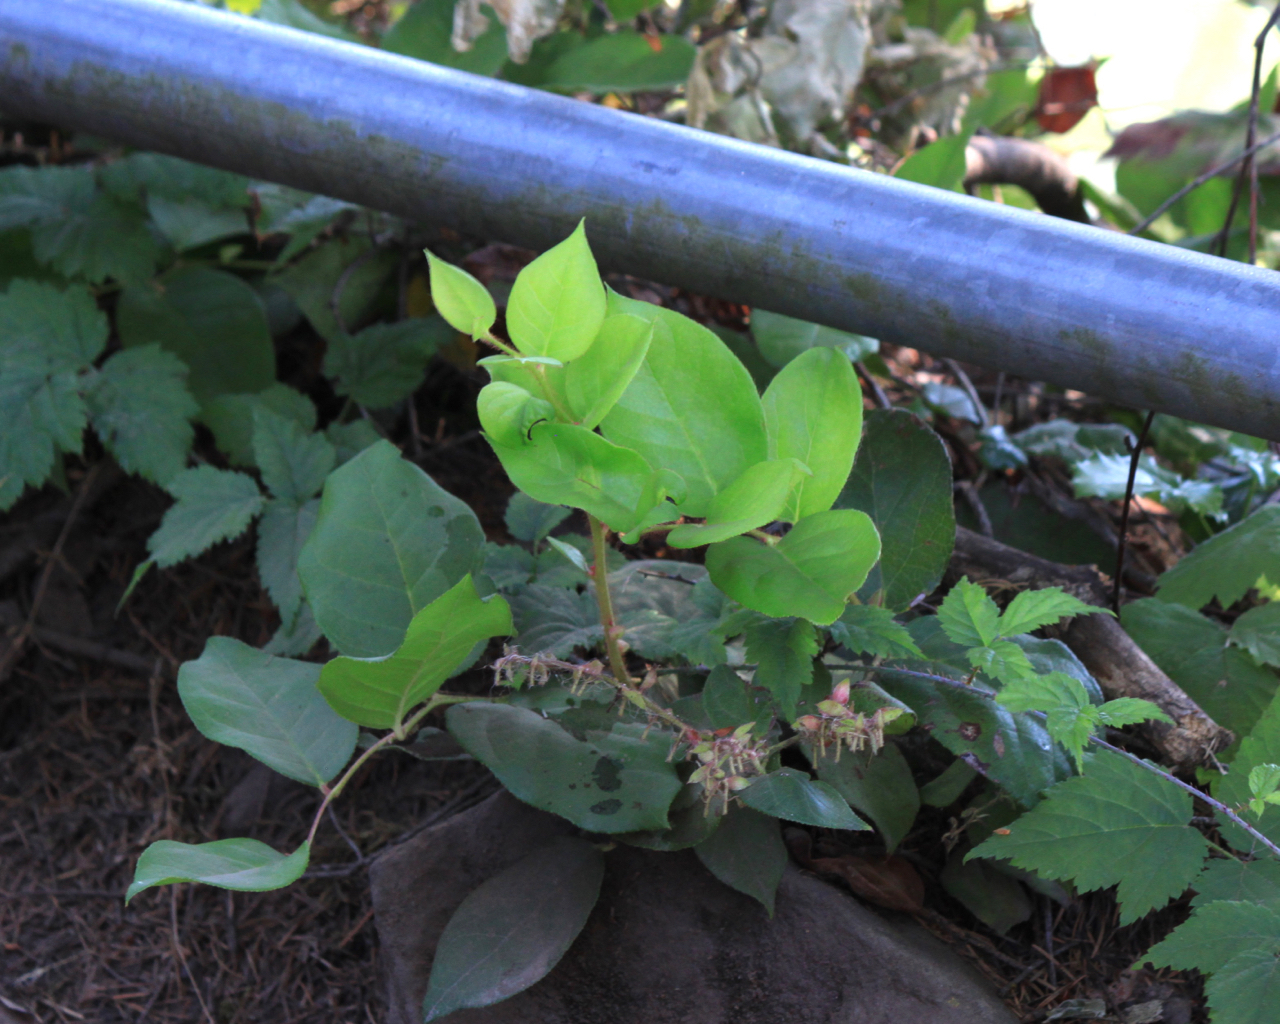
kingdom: Plantae
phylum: Tracheophyta
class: Magnoliopsida
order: Ericales
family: Ericaceae
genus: Gaultheria
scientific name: Gaultheria shallon
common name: Shallon
